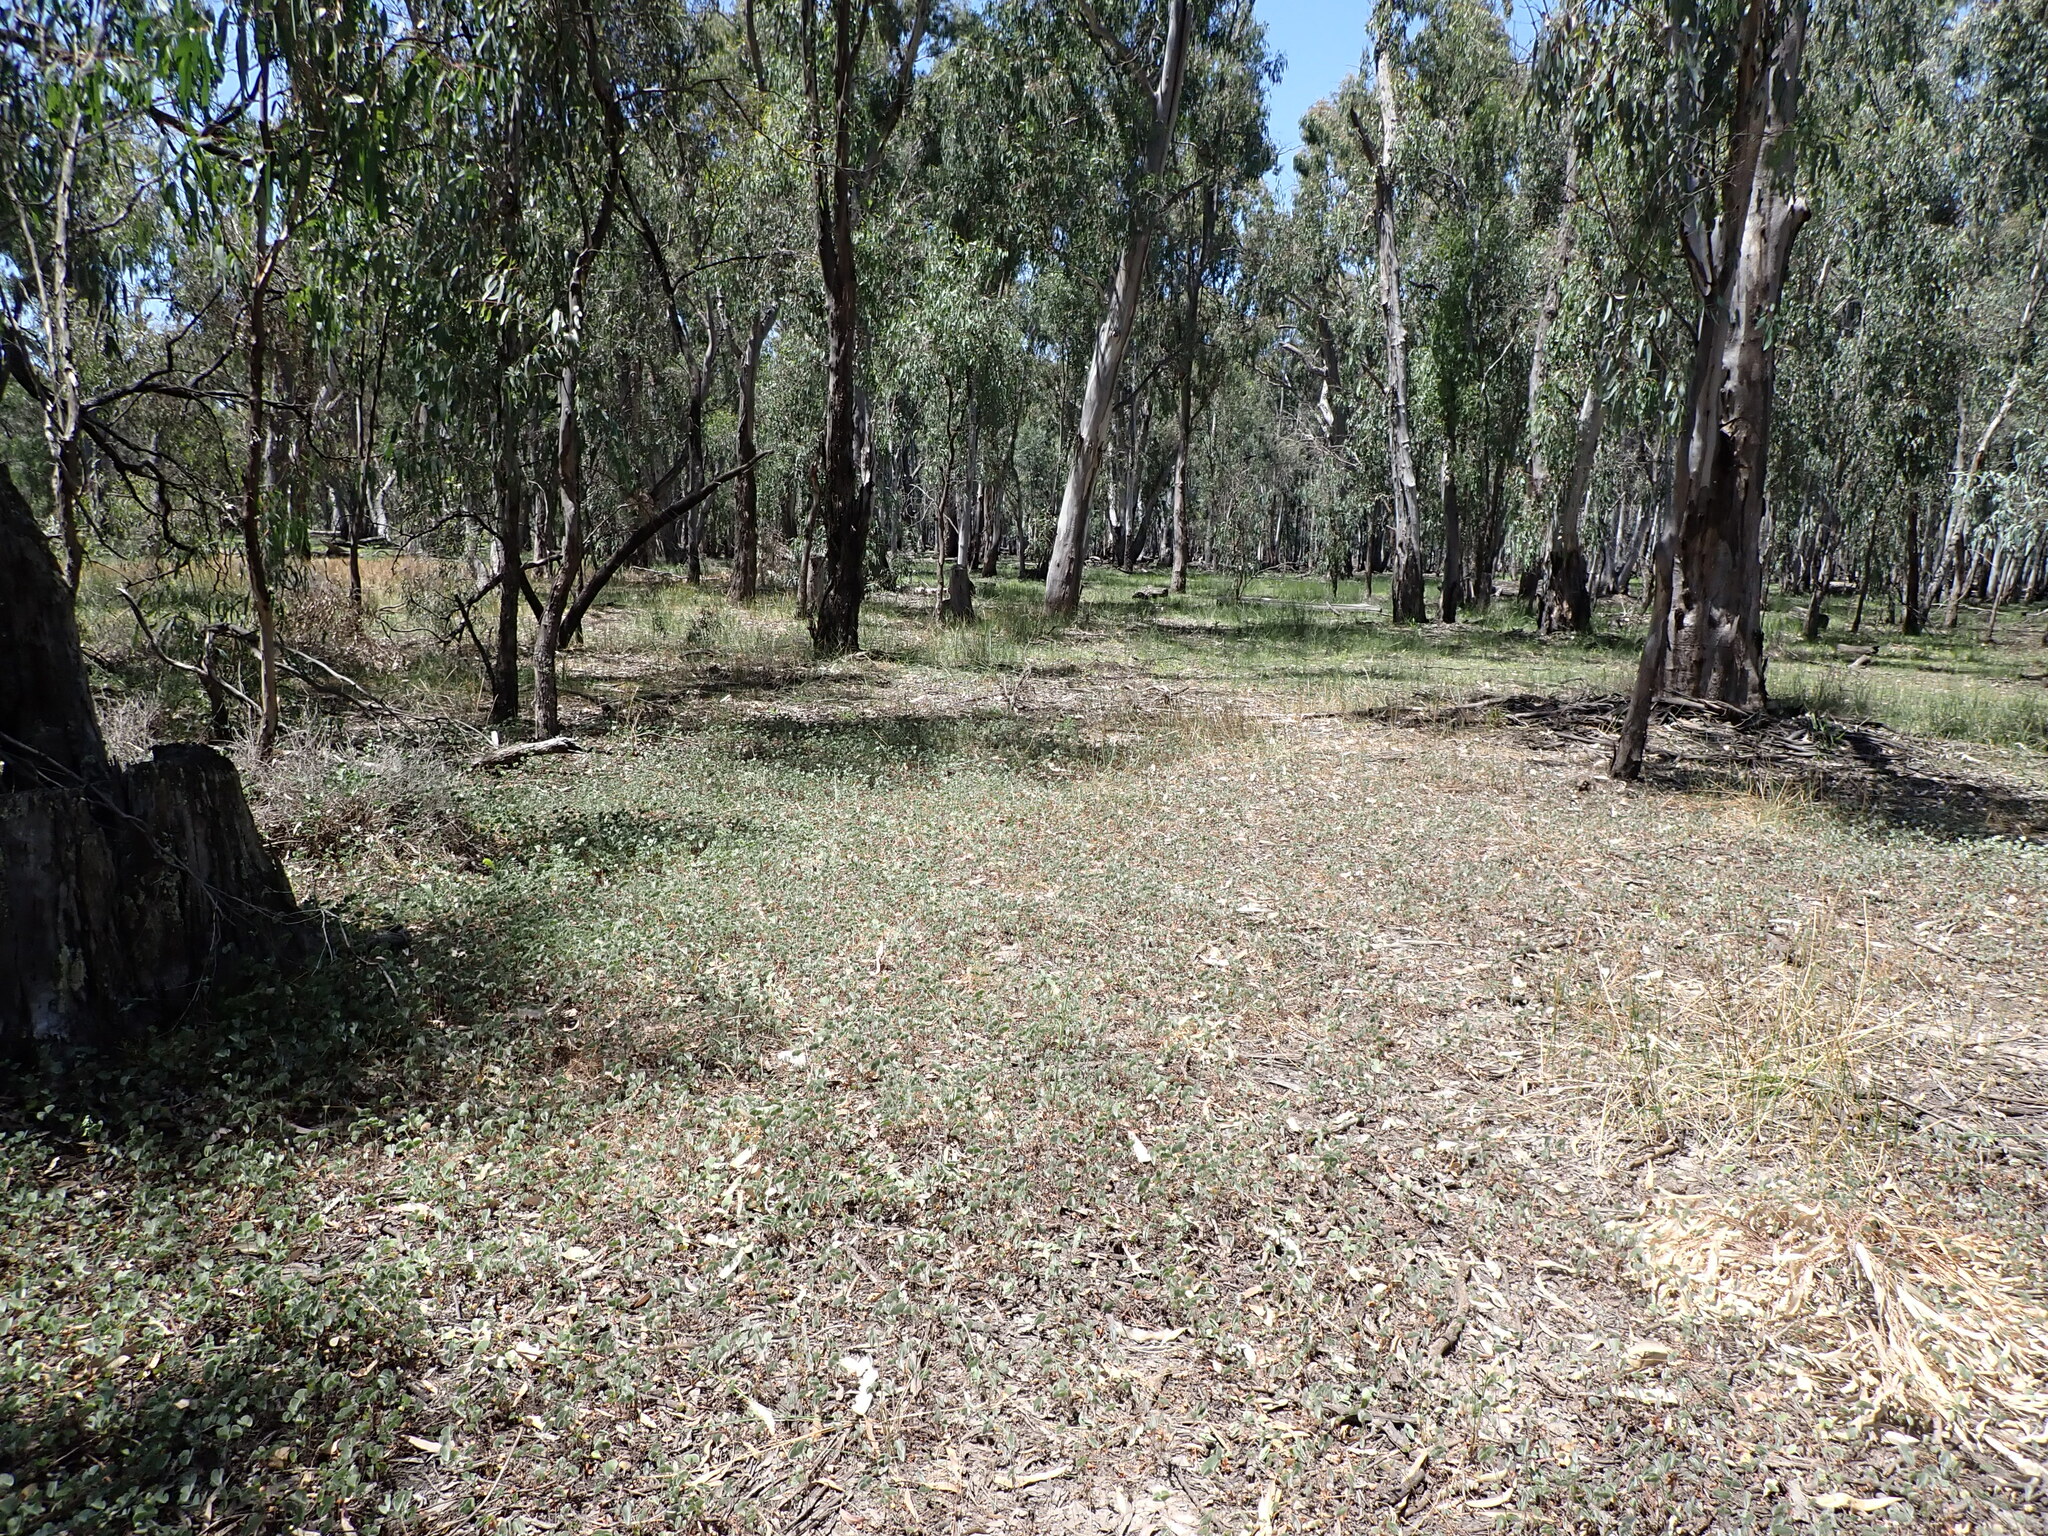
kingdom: Plantae
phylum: Tracheophyta
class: Polypodiopsida
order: Salviniales
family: Marsileaceae
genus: Marsilea
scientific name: Marsilea drummondii
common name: Nardoo
